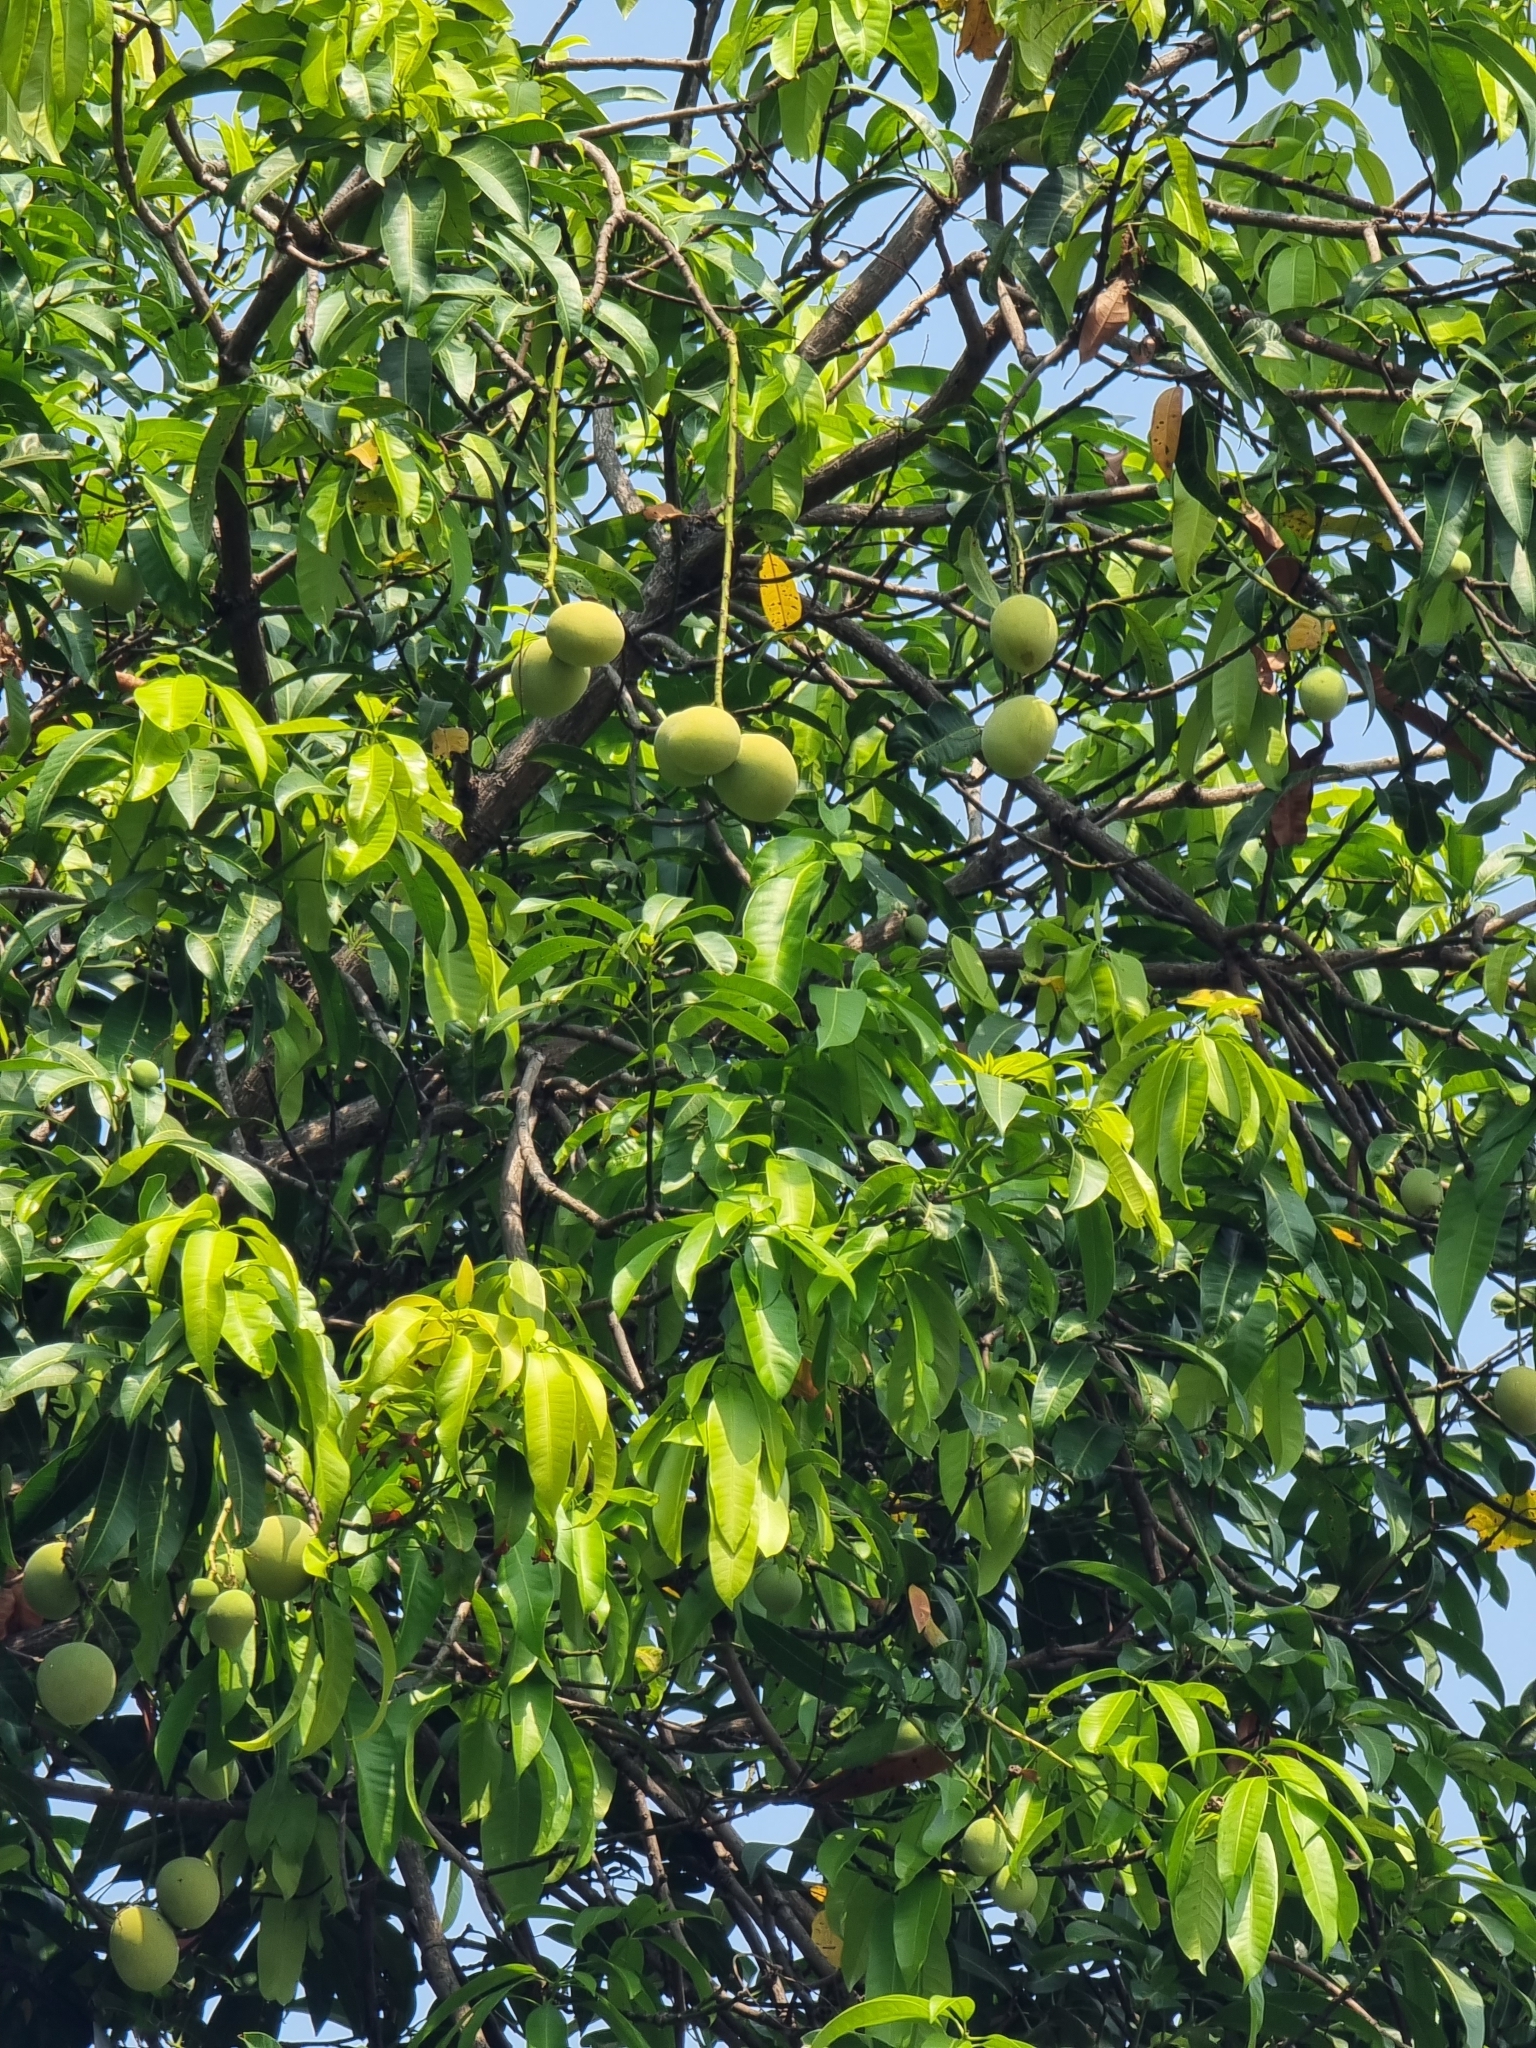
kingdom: Plantae
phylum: Tracheophyta
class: Magnoliopsida
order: Sapindales
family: Anacardiaceae
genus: Mangifera
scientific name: Mangifera indica
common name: Mango
